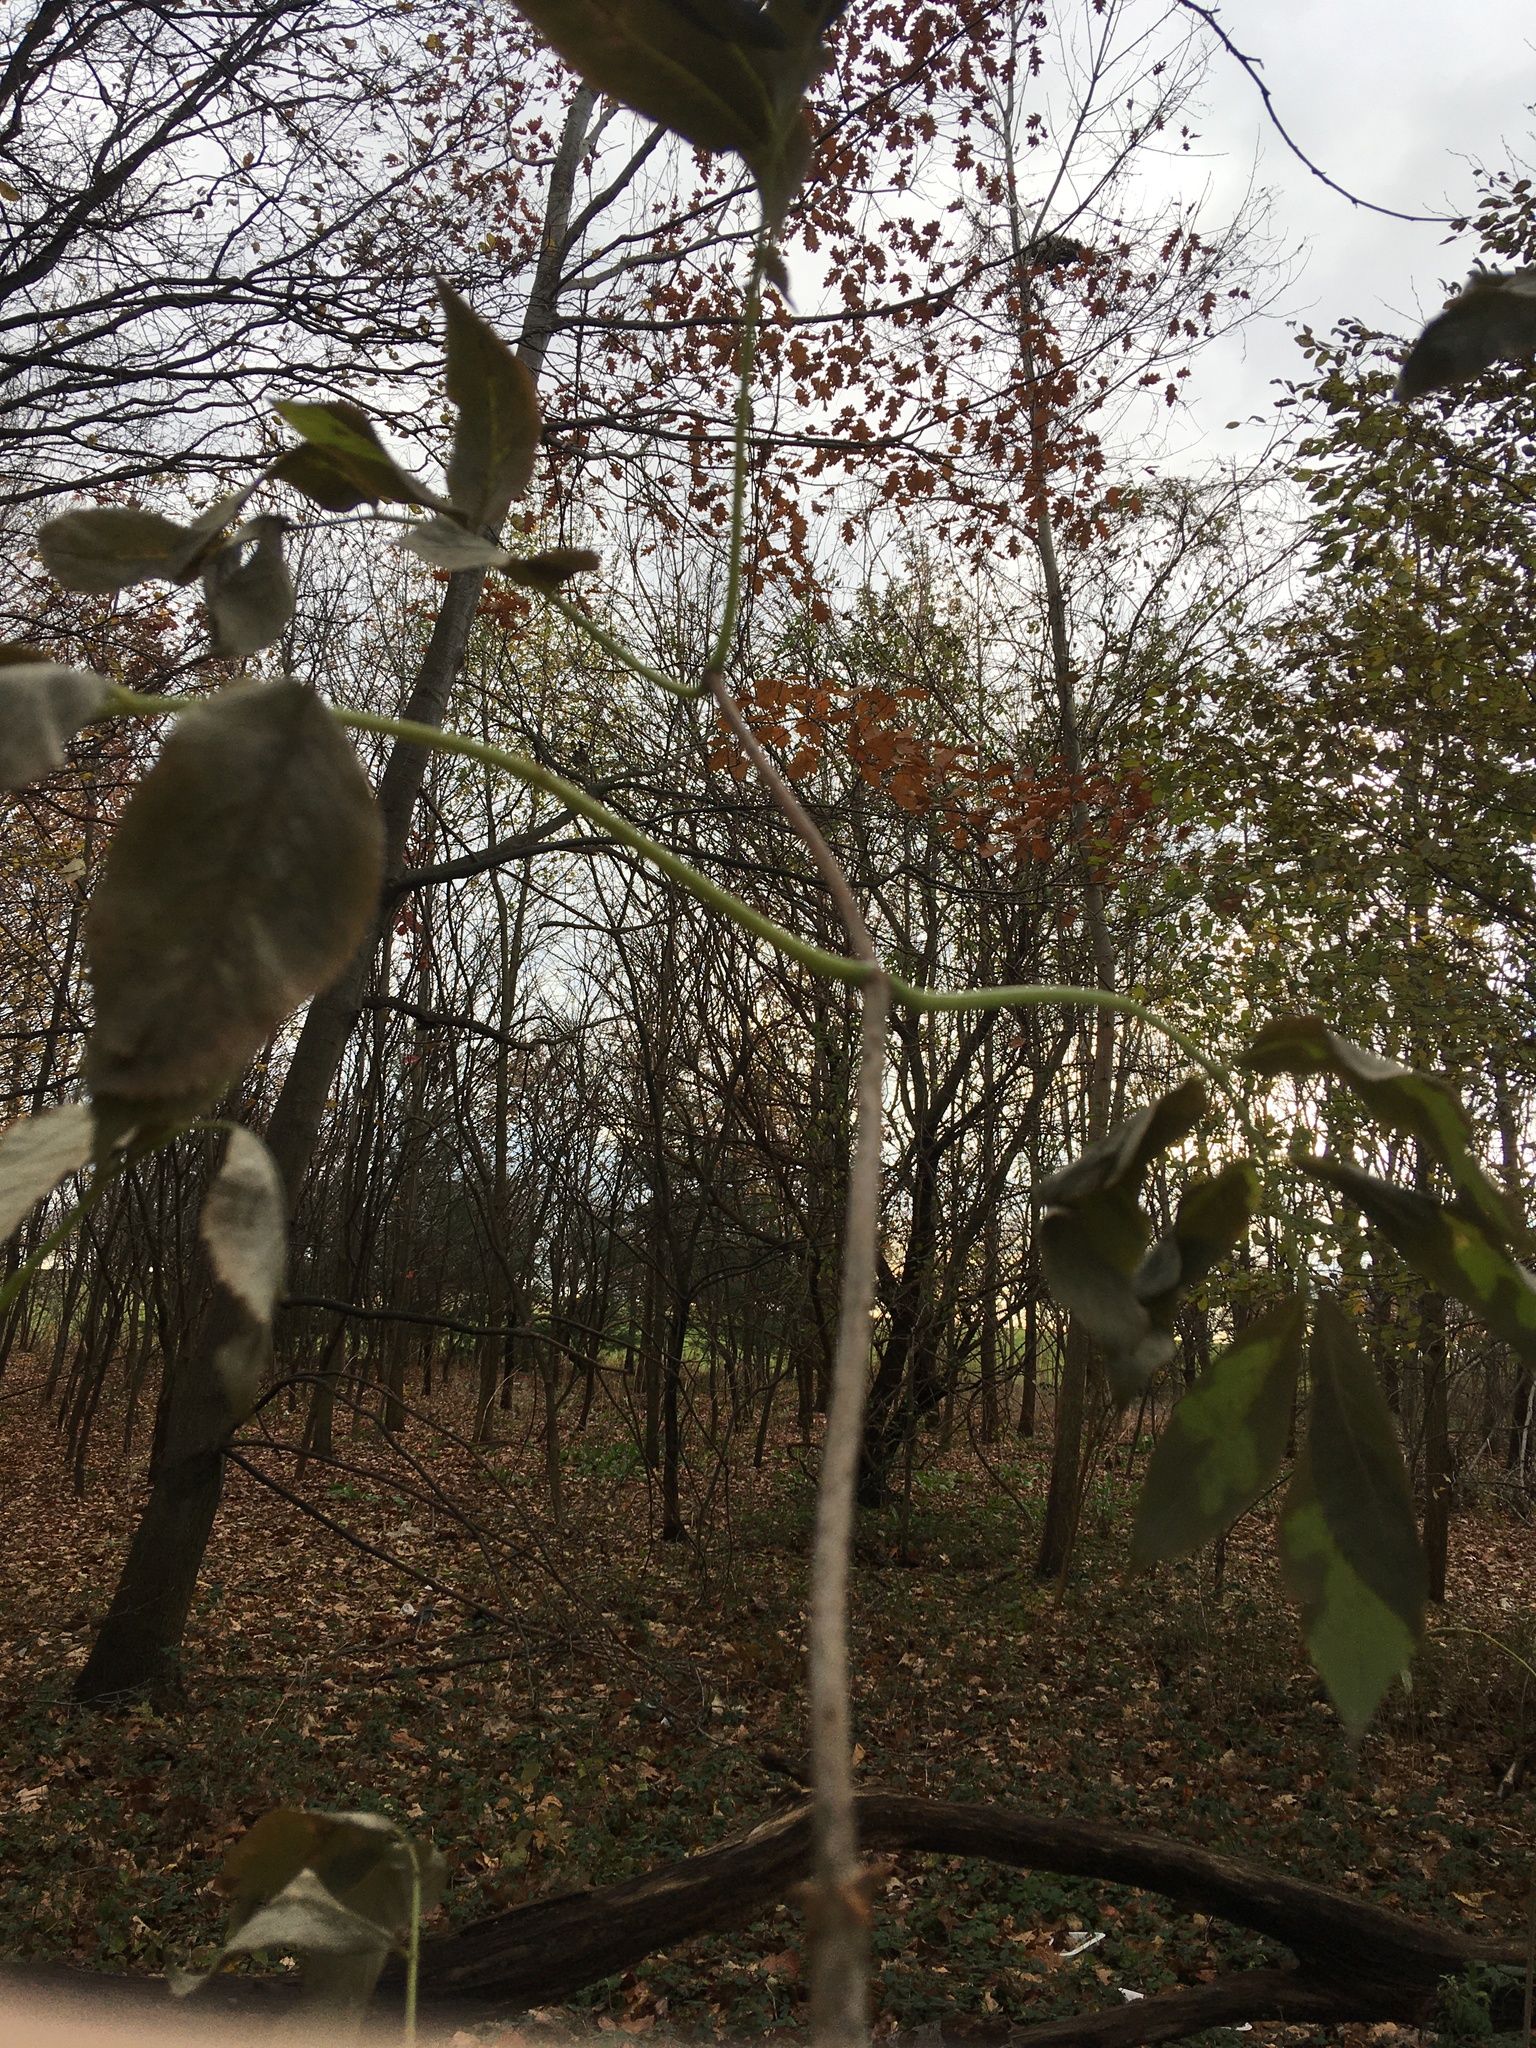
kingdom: Plantae
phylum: Tracheophyta
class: Magnoliopsida
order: Dipsacales
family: Viburnaceae
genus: Sambucus
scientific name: Sambucus canadensis
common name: American elder
